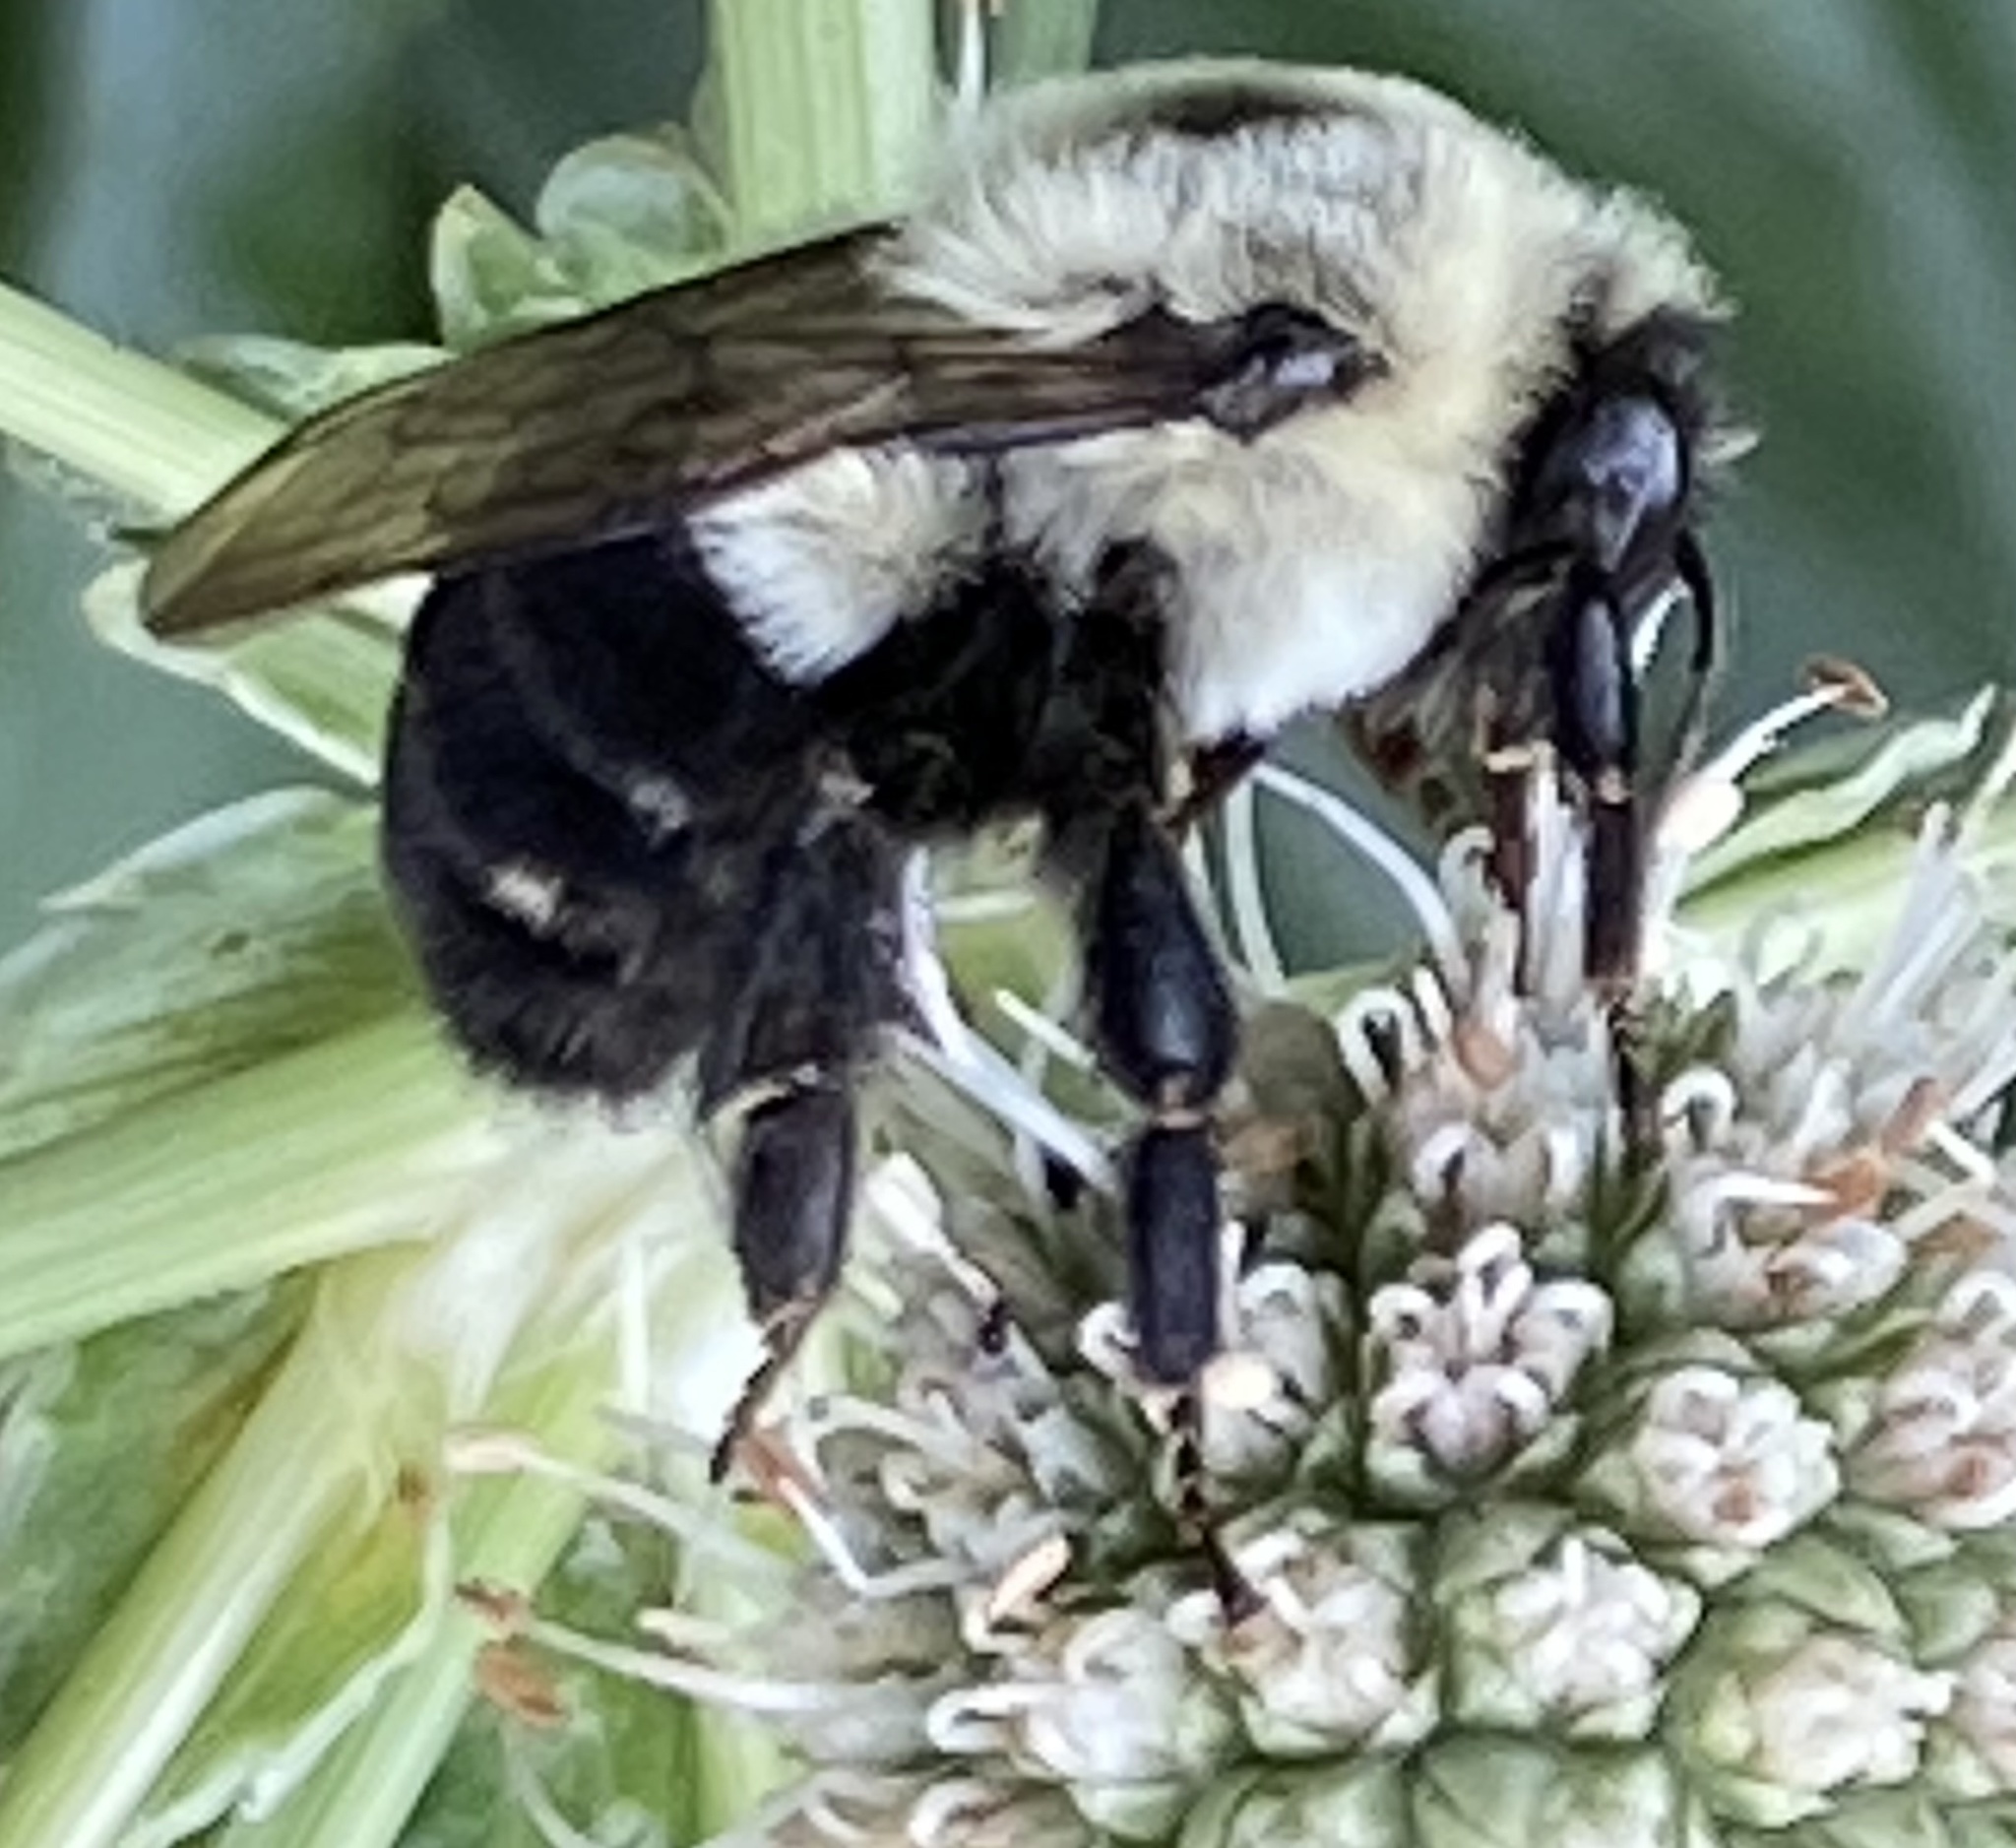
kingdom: Animalia
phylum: Arthropoda
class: Insecta
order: Hymenoptera
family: Apidae
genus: Bombus
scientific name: Bombus impatiens
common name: Common eastern bumble bee
